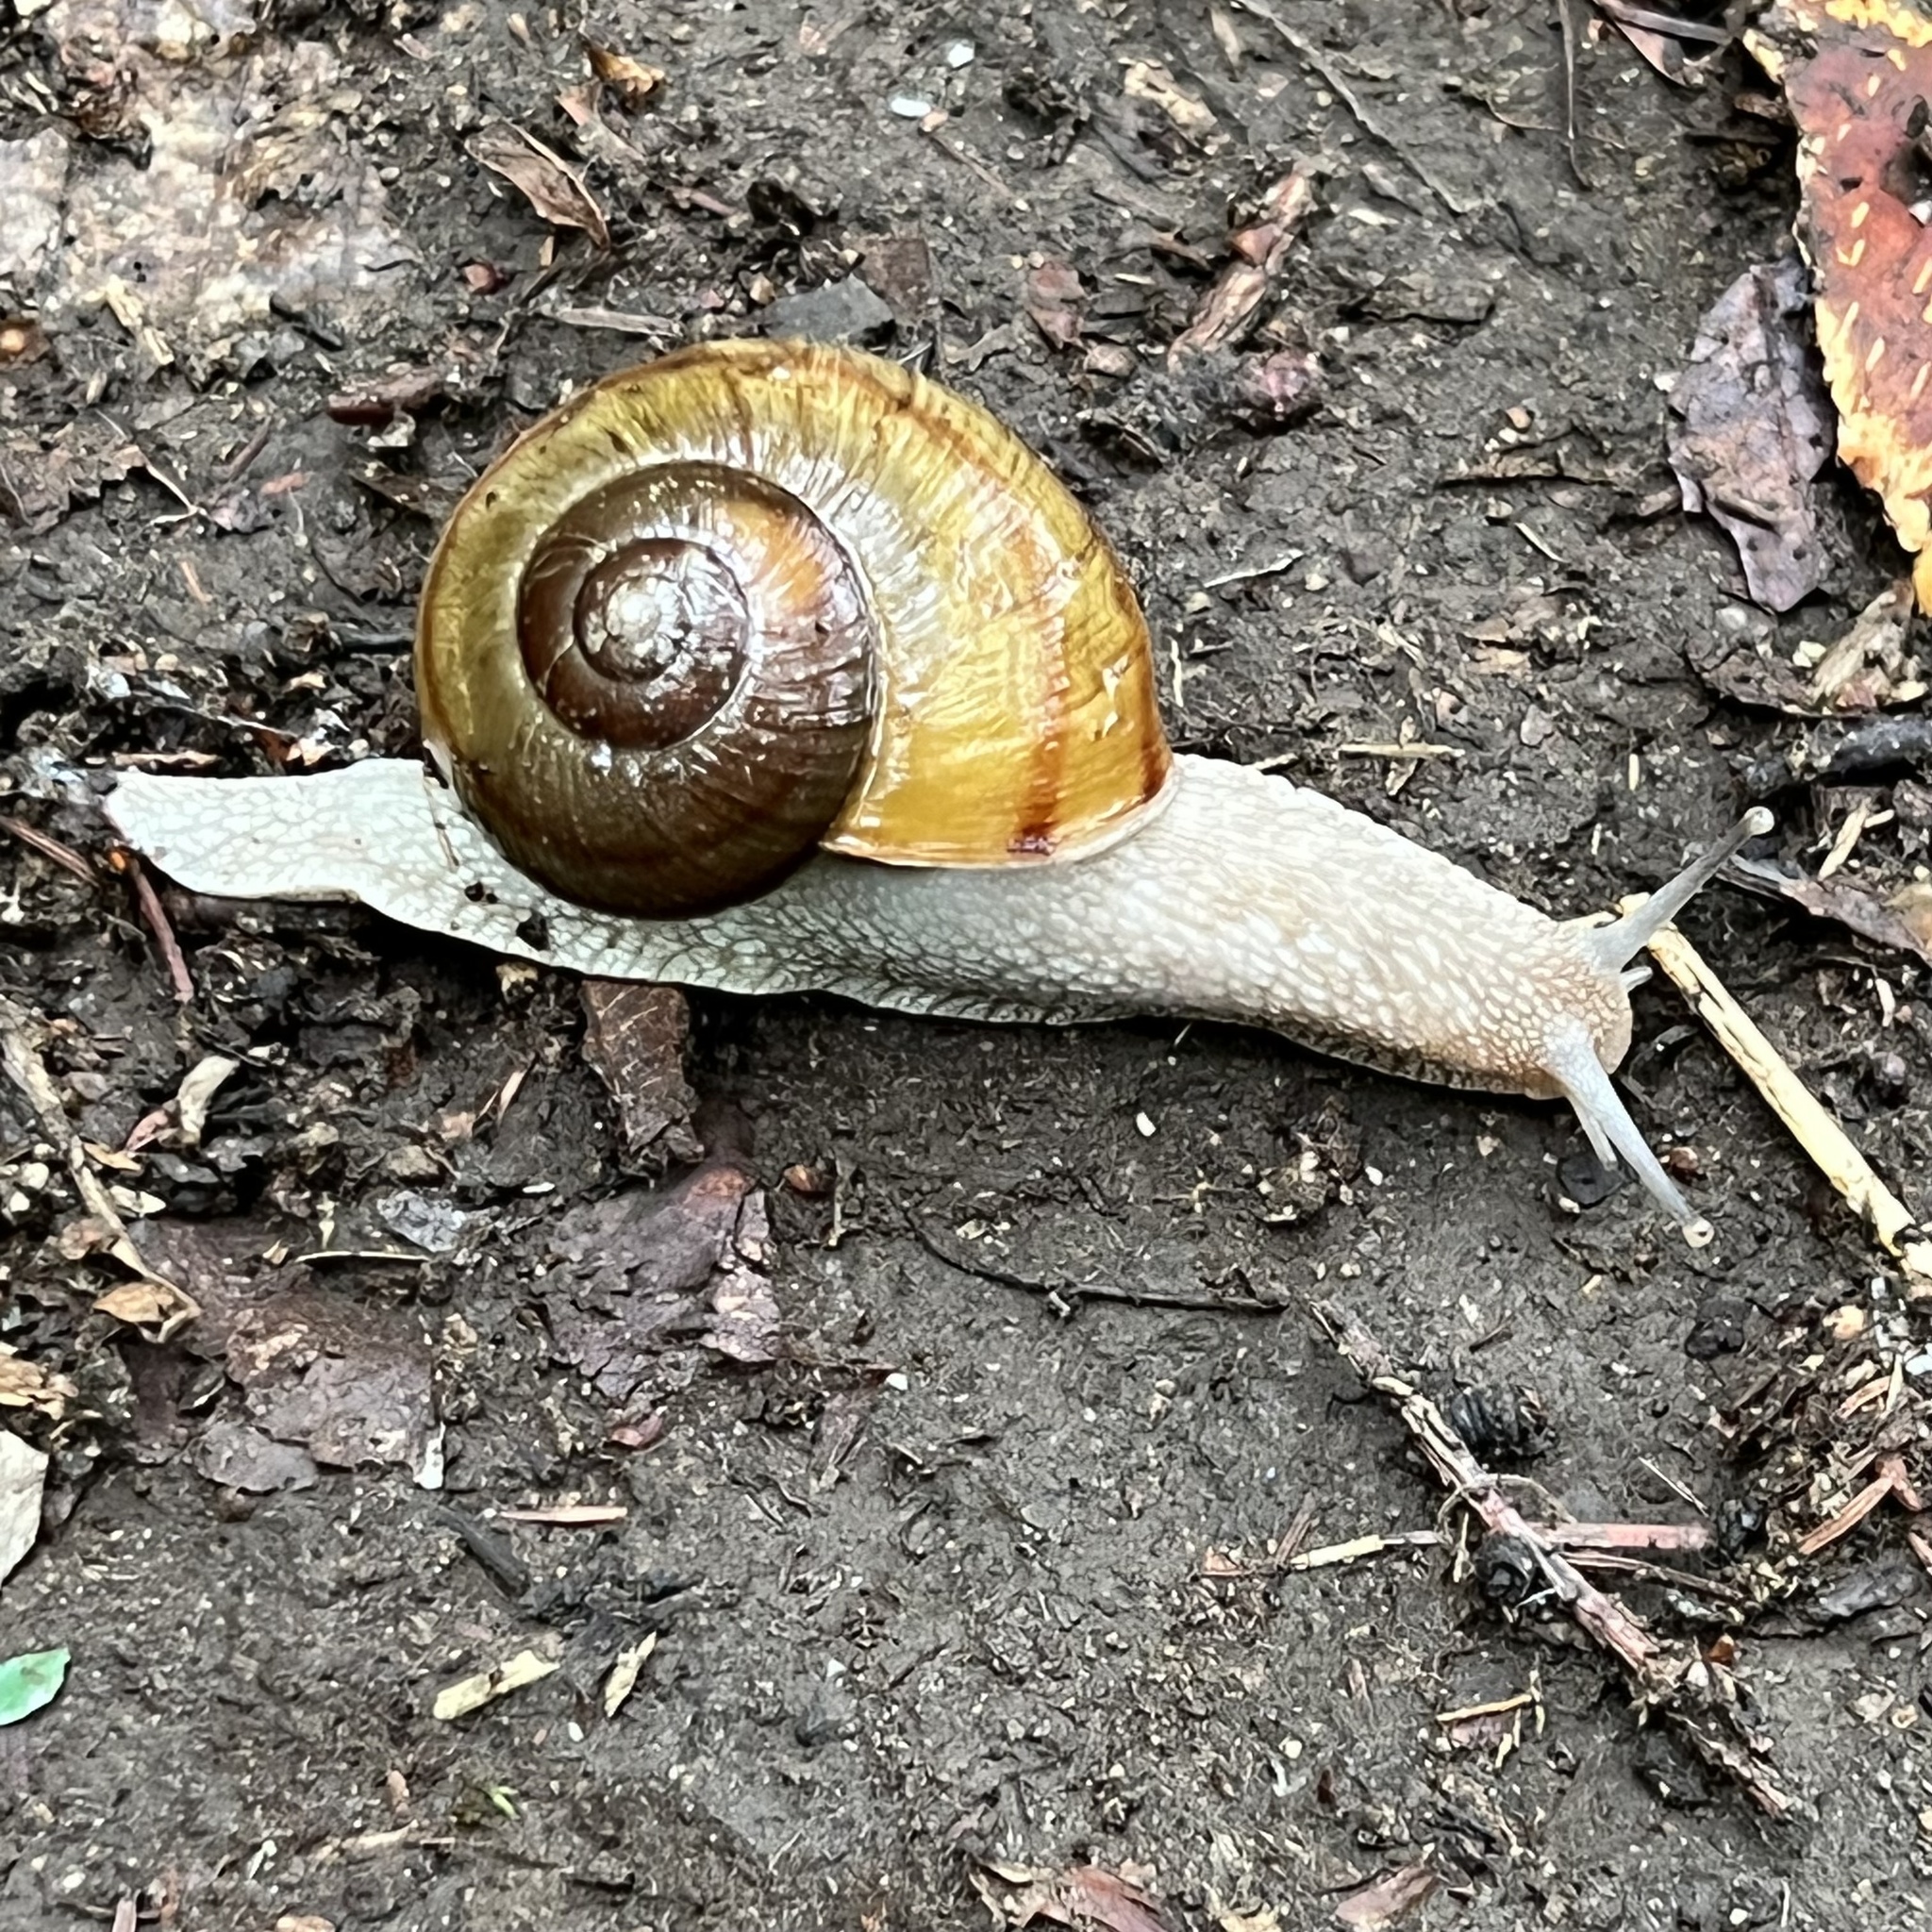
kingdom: Animalia
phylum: Mollusca
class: Gastropoda
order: Stylommatophora
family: Camaenidae
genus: Karaftohelix
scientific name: Karaftohelix gainesi
